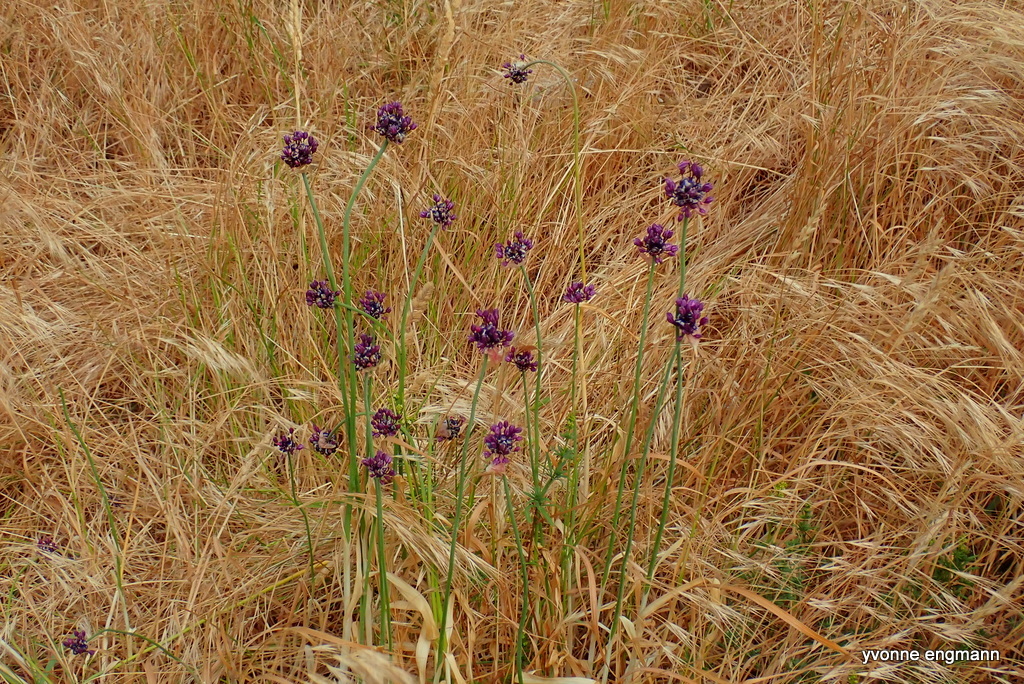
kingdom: Plantae
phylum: Tracheophyta
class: Liliopsida
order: Asparagales
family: Amaryllidaceae
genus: Allium
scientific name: Allium scorodoprasum
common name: Sand leek
